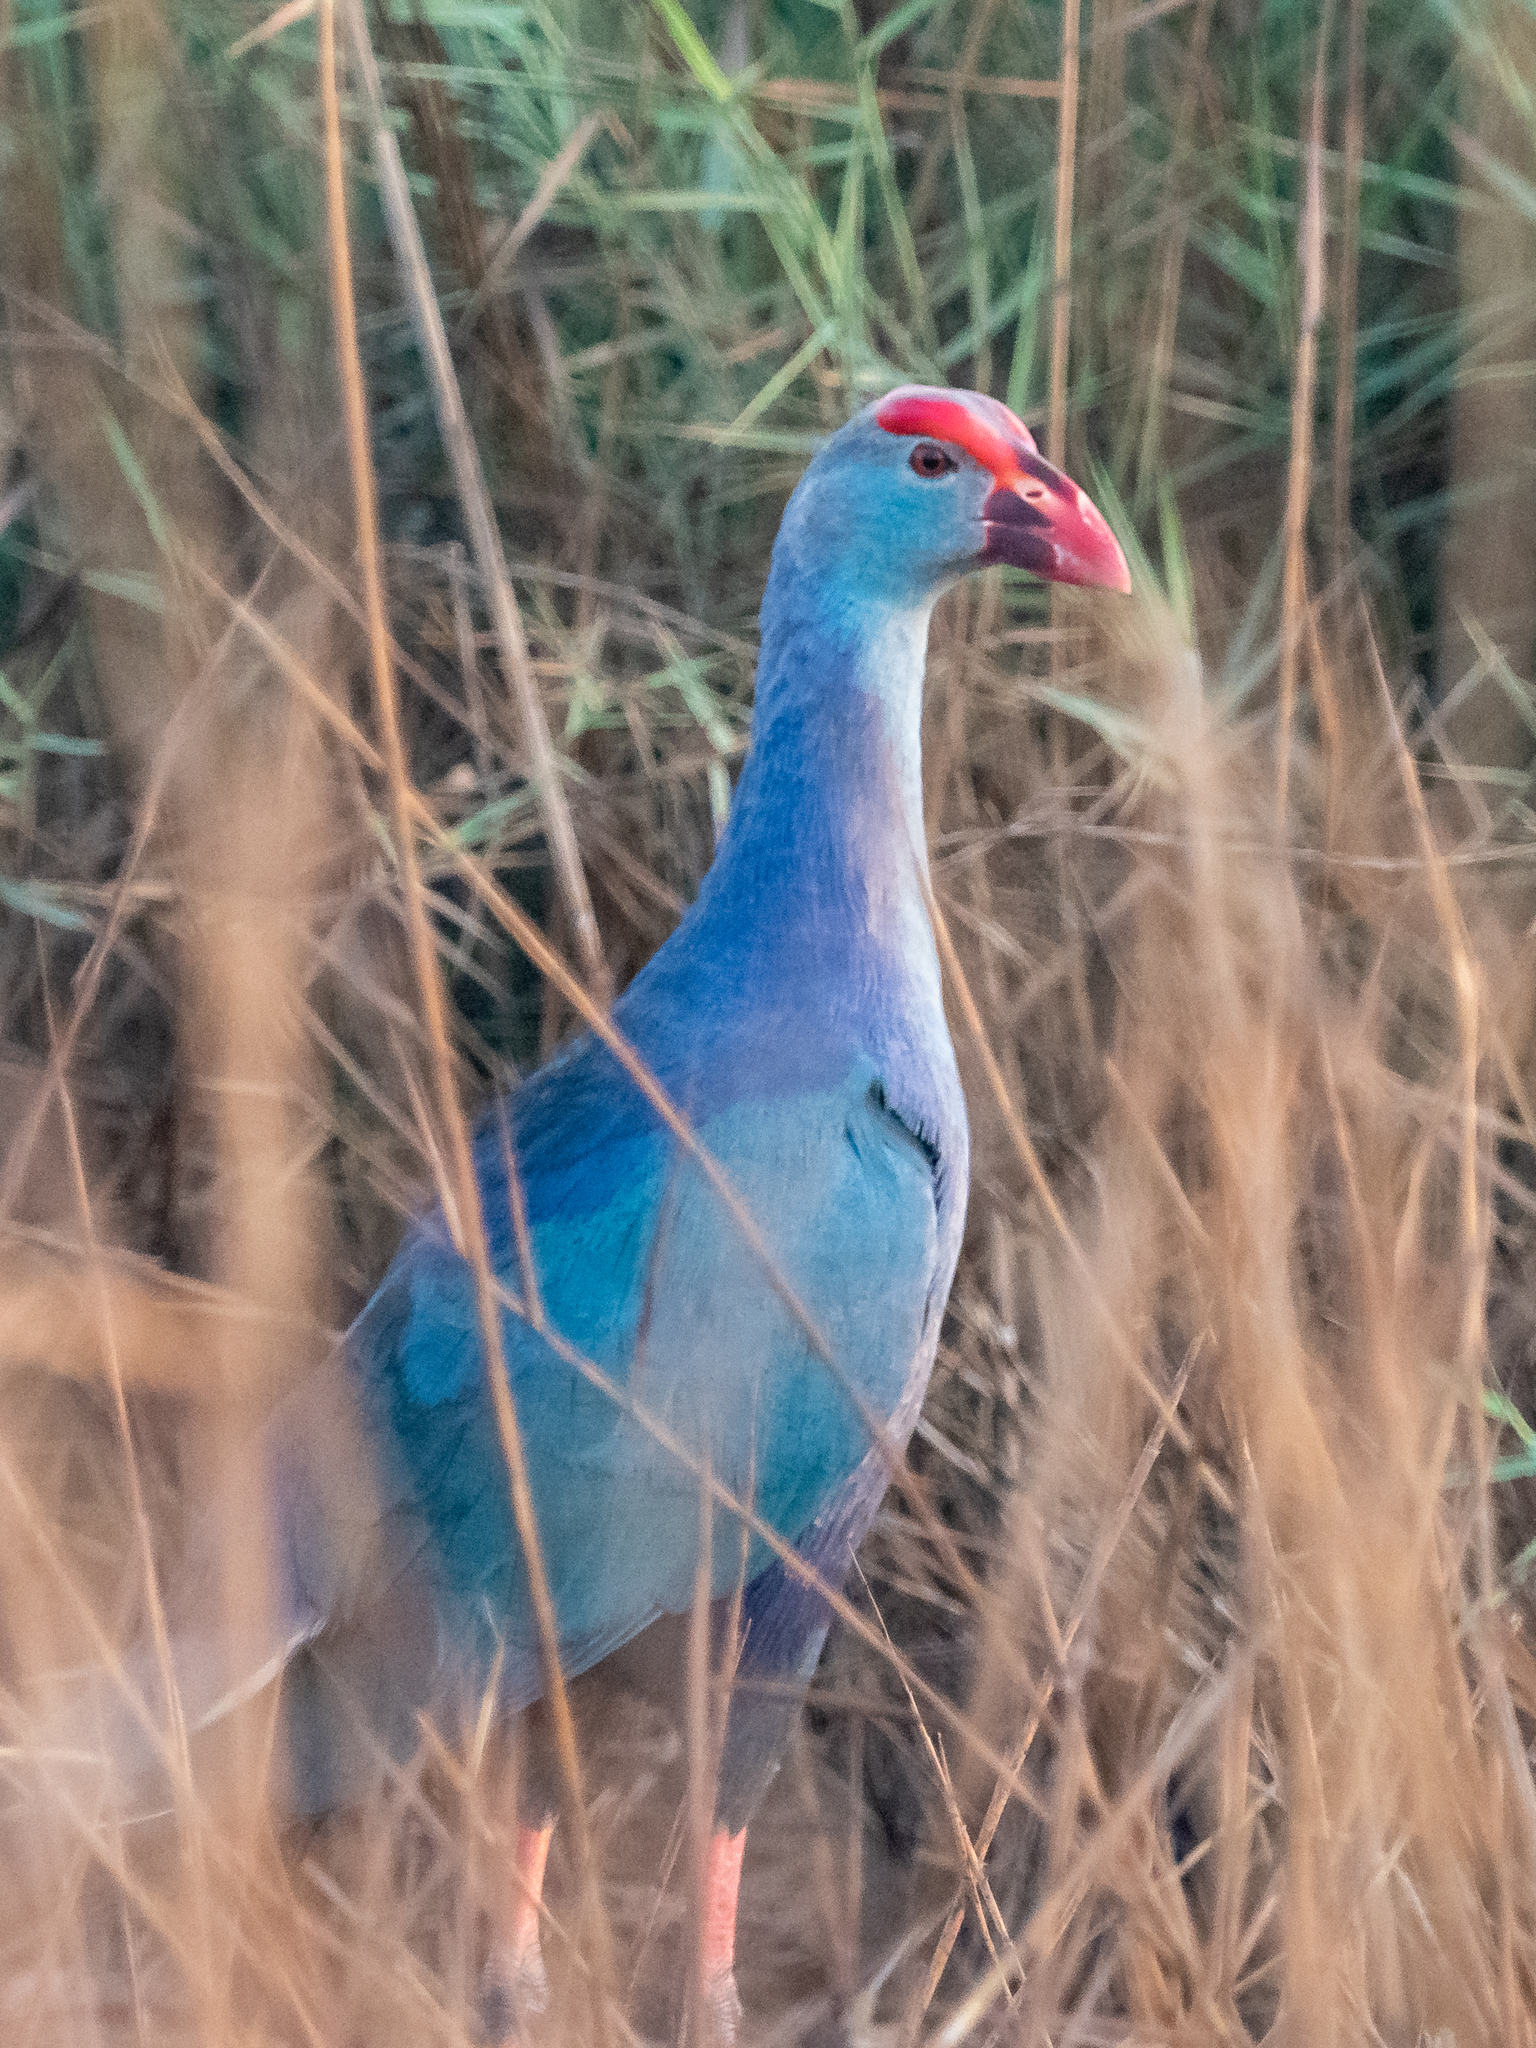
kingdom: Animalia
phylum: Chordata
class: Aves
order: Gruiformes
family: Rallidae
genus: Porphyrio
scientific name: Porphyrio porphyrio
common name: Purple swamphen
